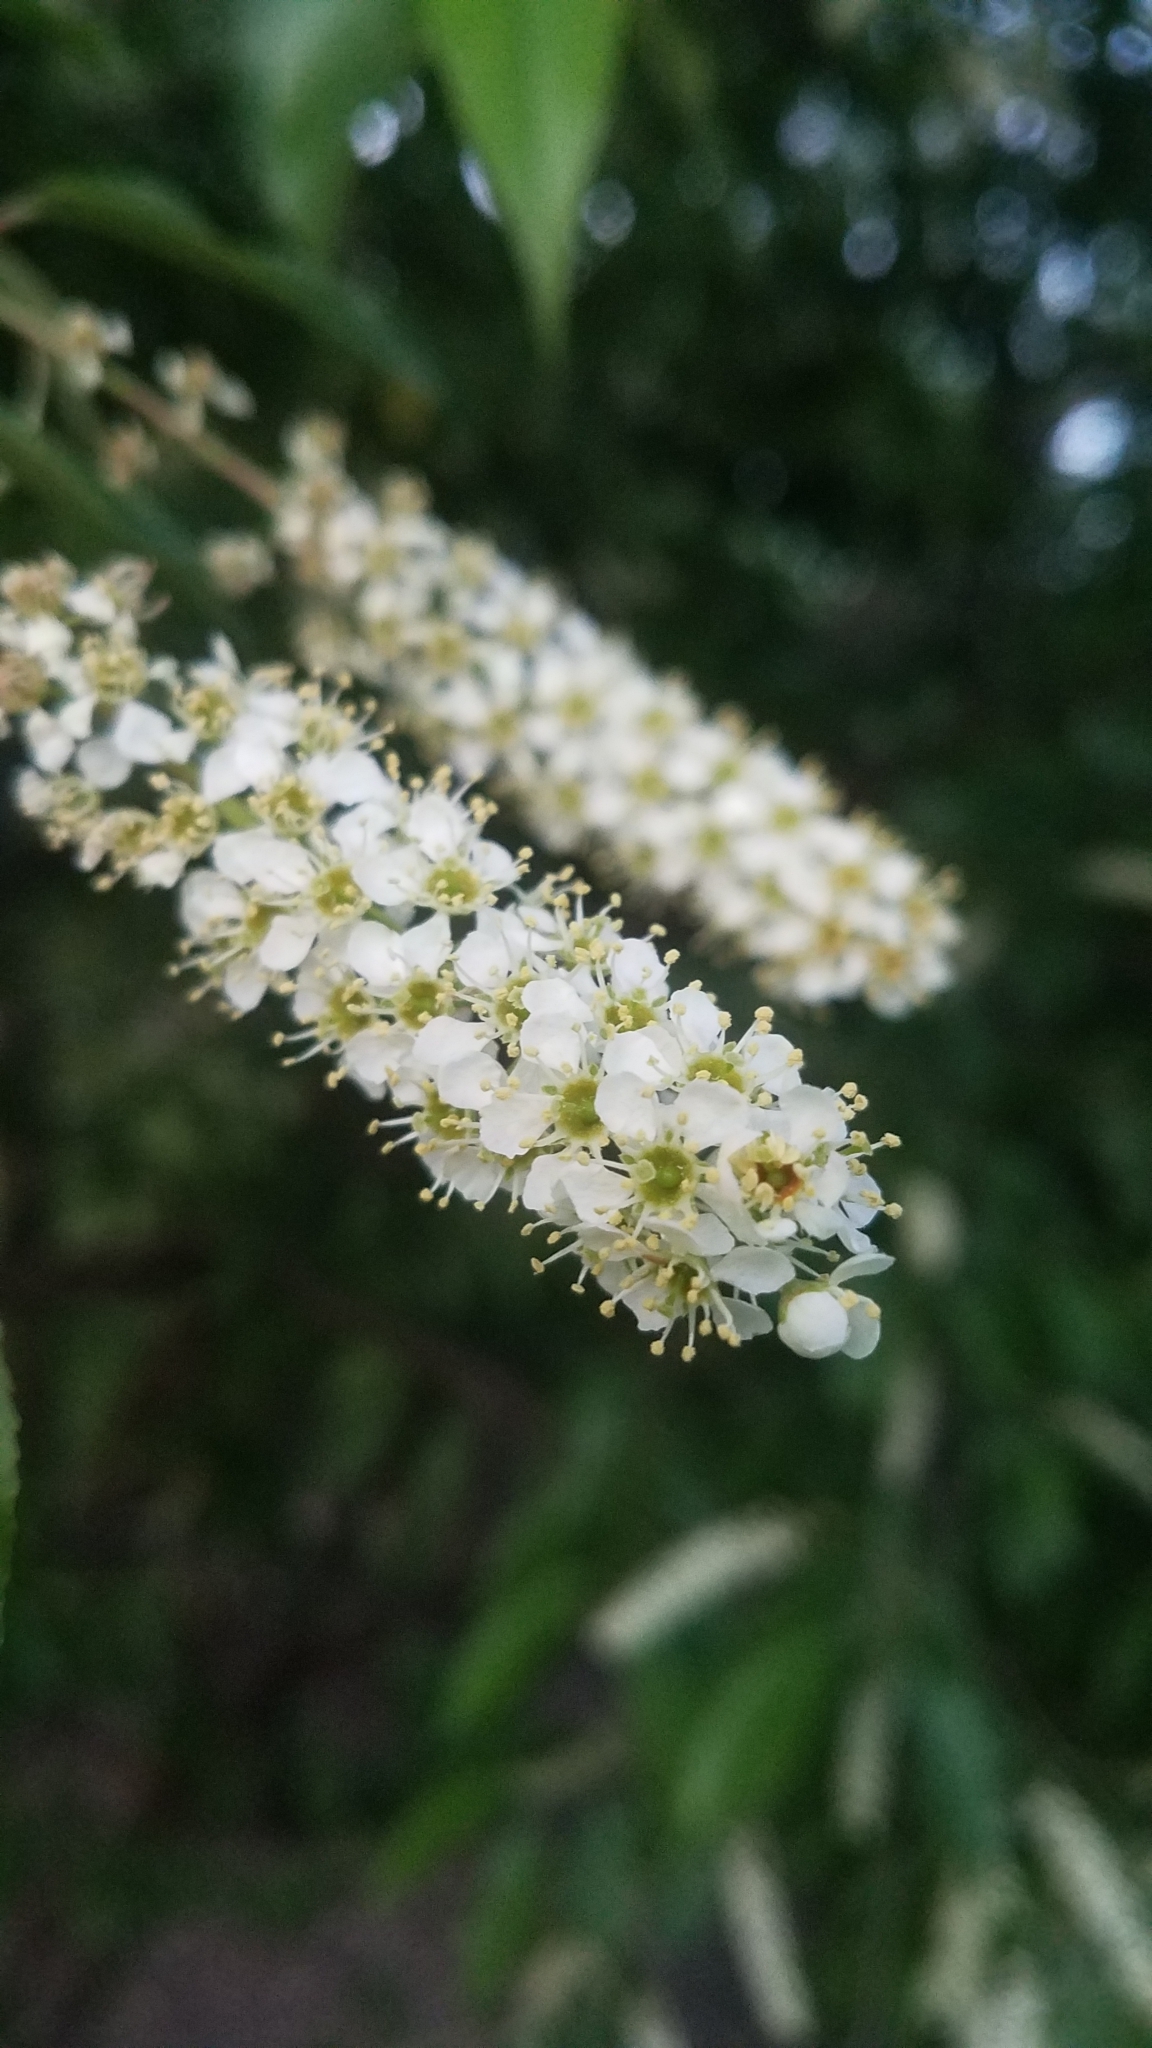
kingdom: Plantae
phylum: Tracheophyta
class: Magnoliopsida
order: Rosales
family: Rosaceae
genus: Prunus
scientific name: Prunus serotina
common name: Black cherry
